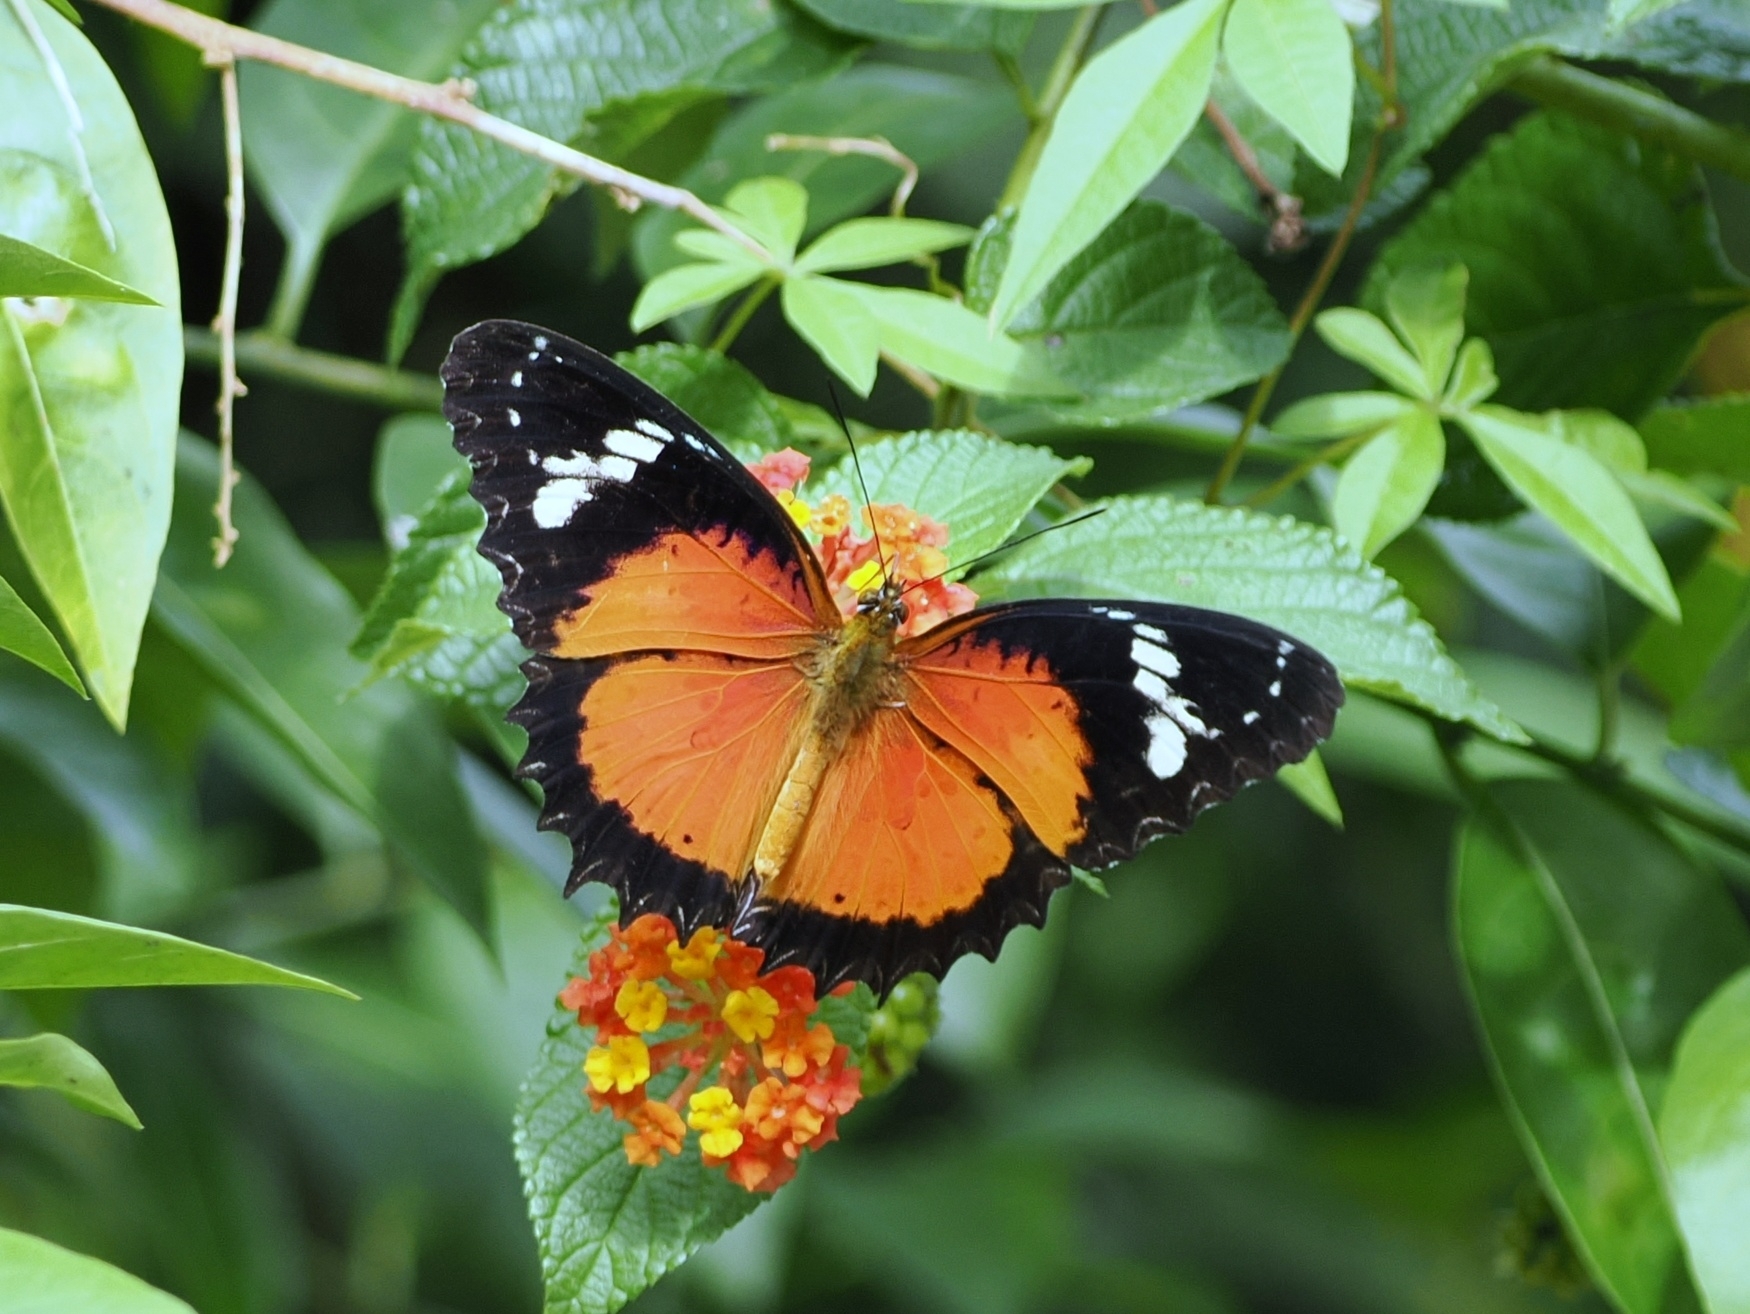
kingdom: Animalia
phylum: Arthropoda
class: Insecta
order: Lepidoptera
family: Nymphalidae
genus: Cethosia
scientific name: Cethosia penthesilea
